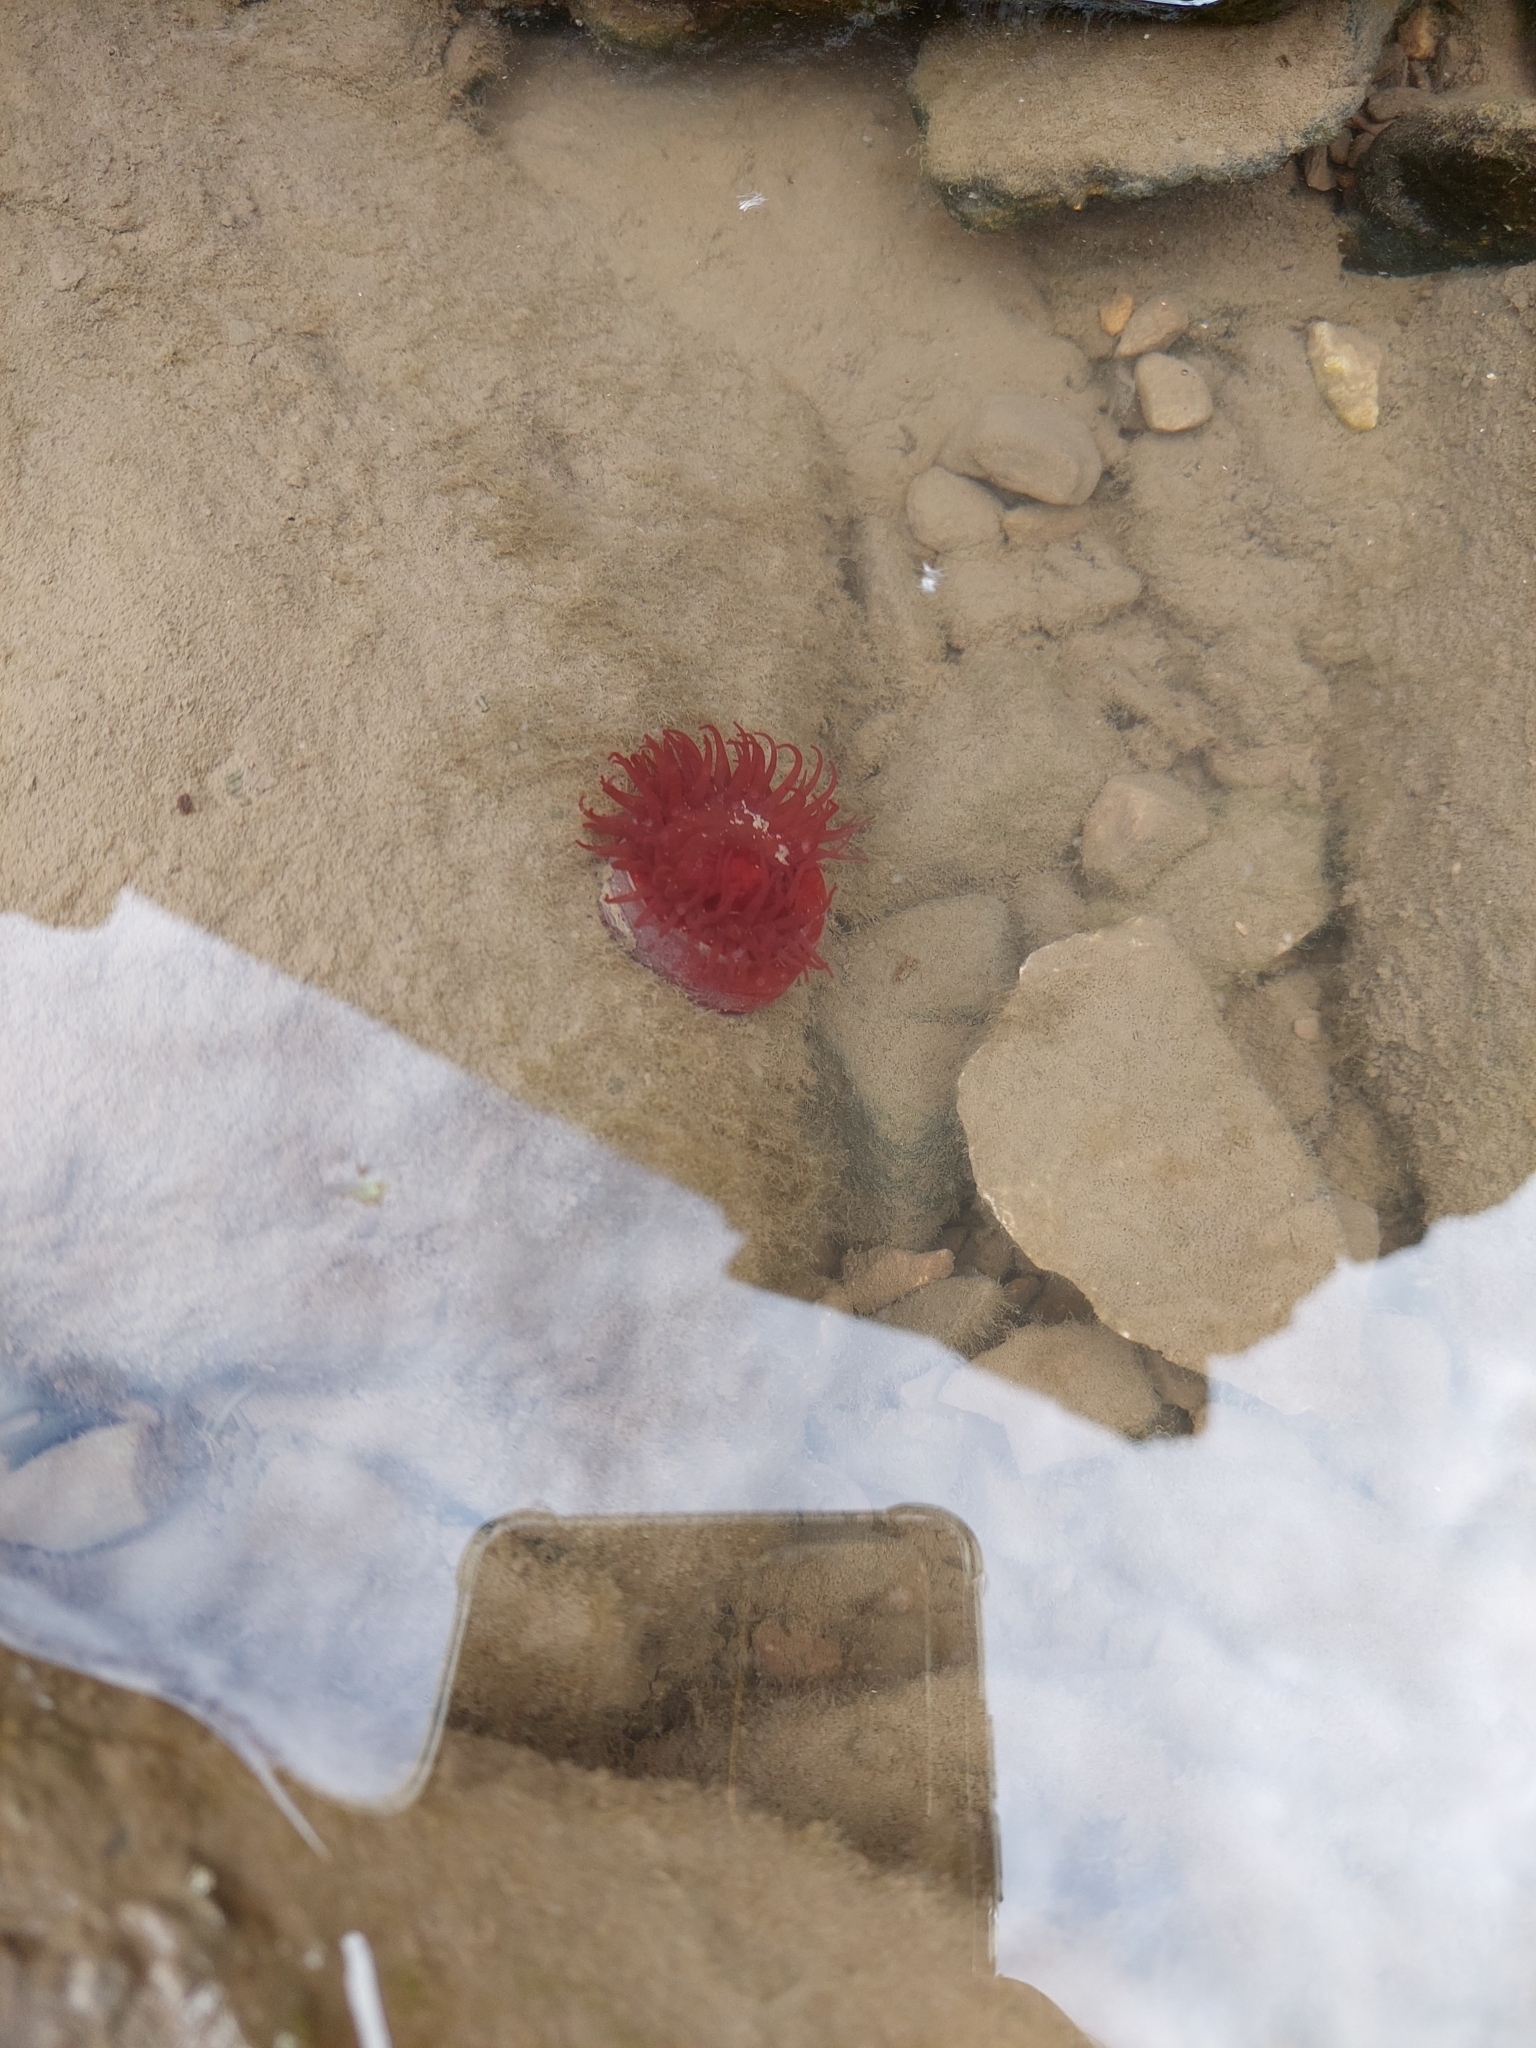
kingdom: Animalia
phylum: Cnidaria
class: Anthozoa
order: Actiniaria
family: Actiniidae
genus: Actinia
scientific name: Actinia equina
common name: Beadlet anemone
